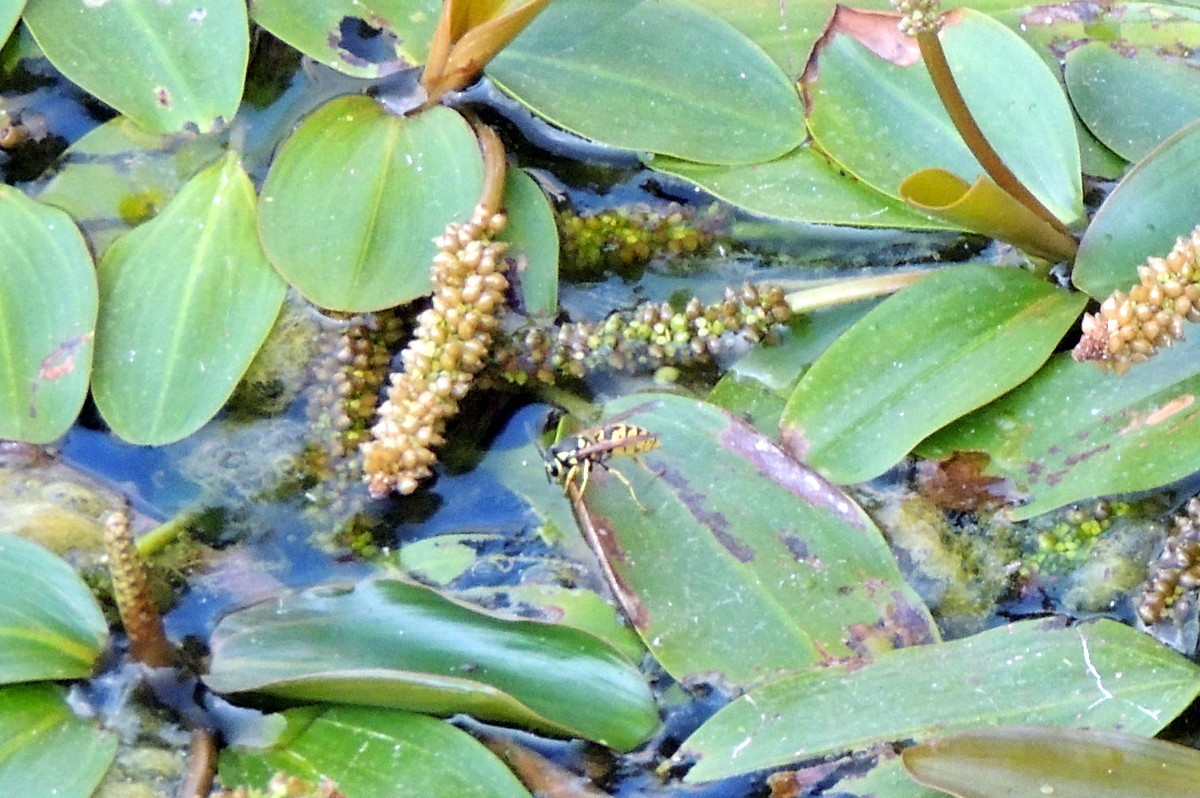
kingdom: Animalia
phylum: Arthropoda
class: Insecta
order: Hymenoptera
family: Vespidae
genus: Vespula
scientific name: Vespula germanica
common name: German wasp
